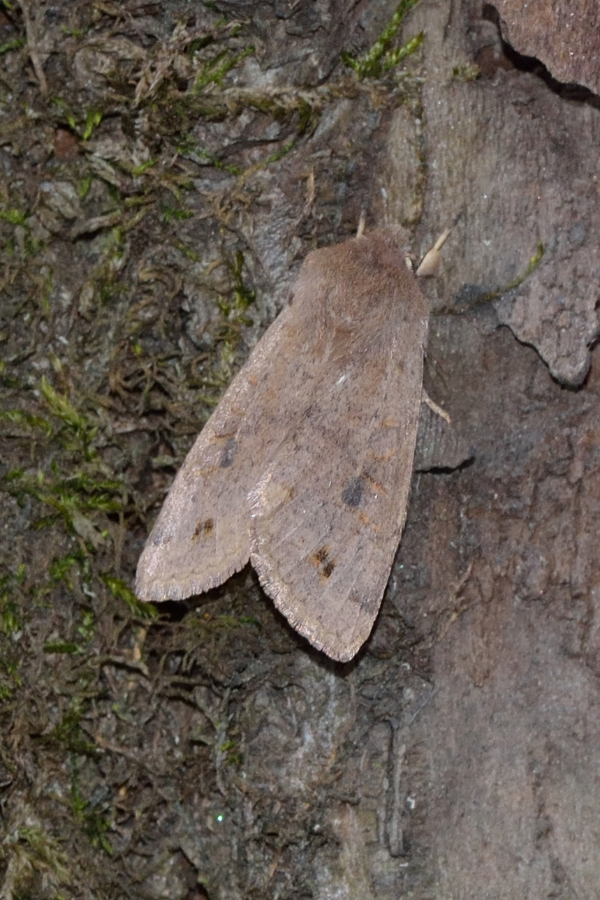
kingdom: Animalia
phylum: Arthropoda
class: Insecta
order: Lepidoptera
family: Noctuidae
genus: Anorthoa
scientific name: Anorthoa munda
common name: Twin-spotted quaker
